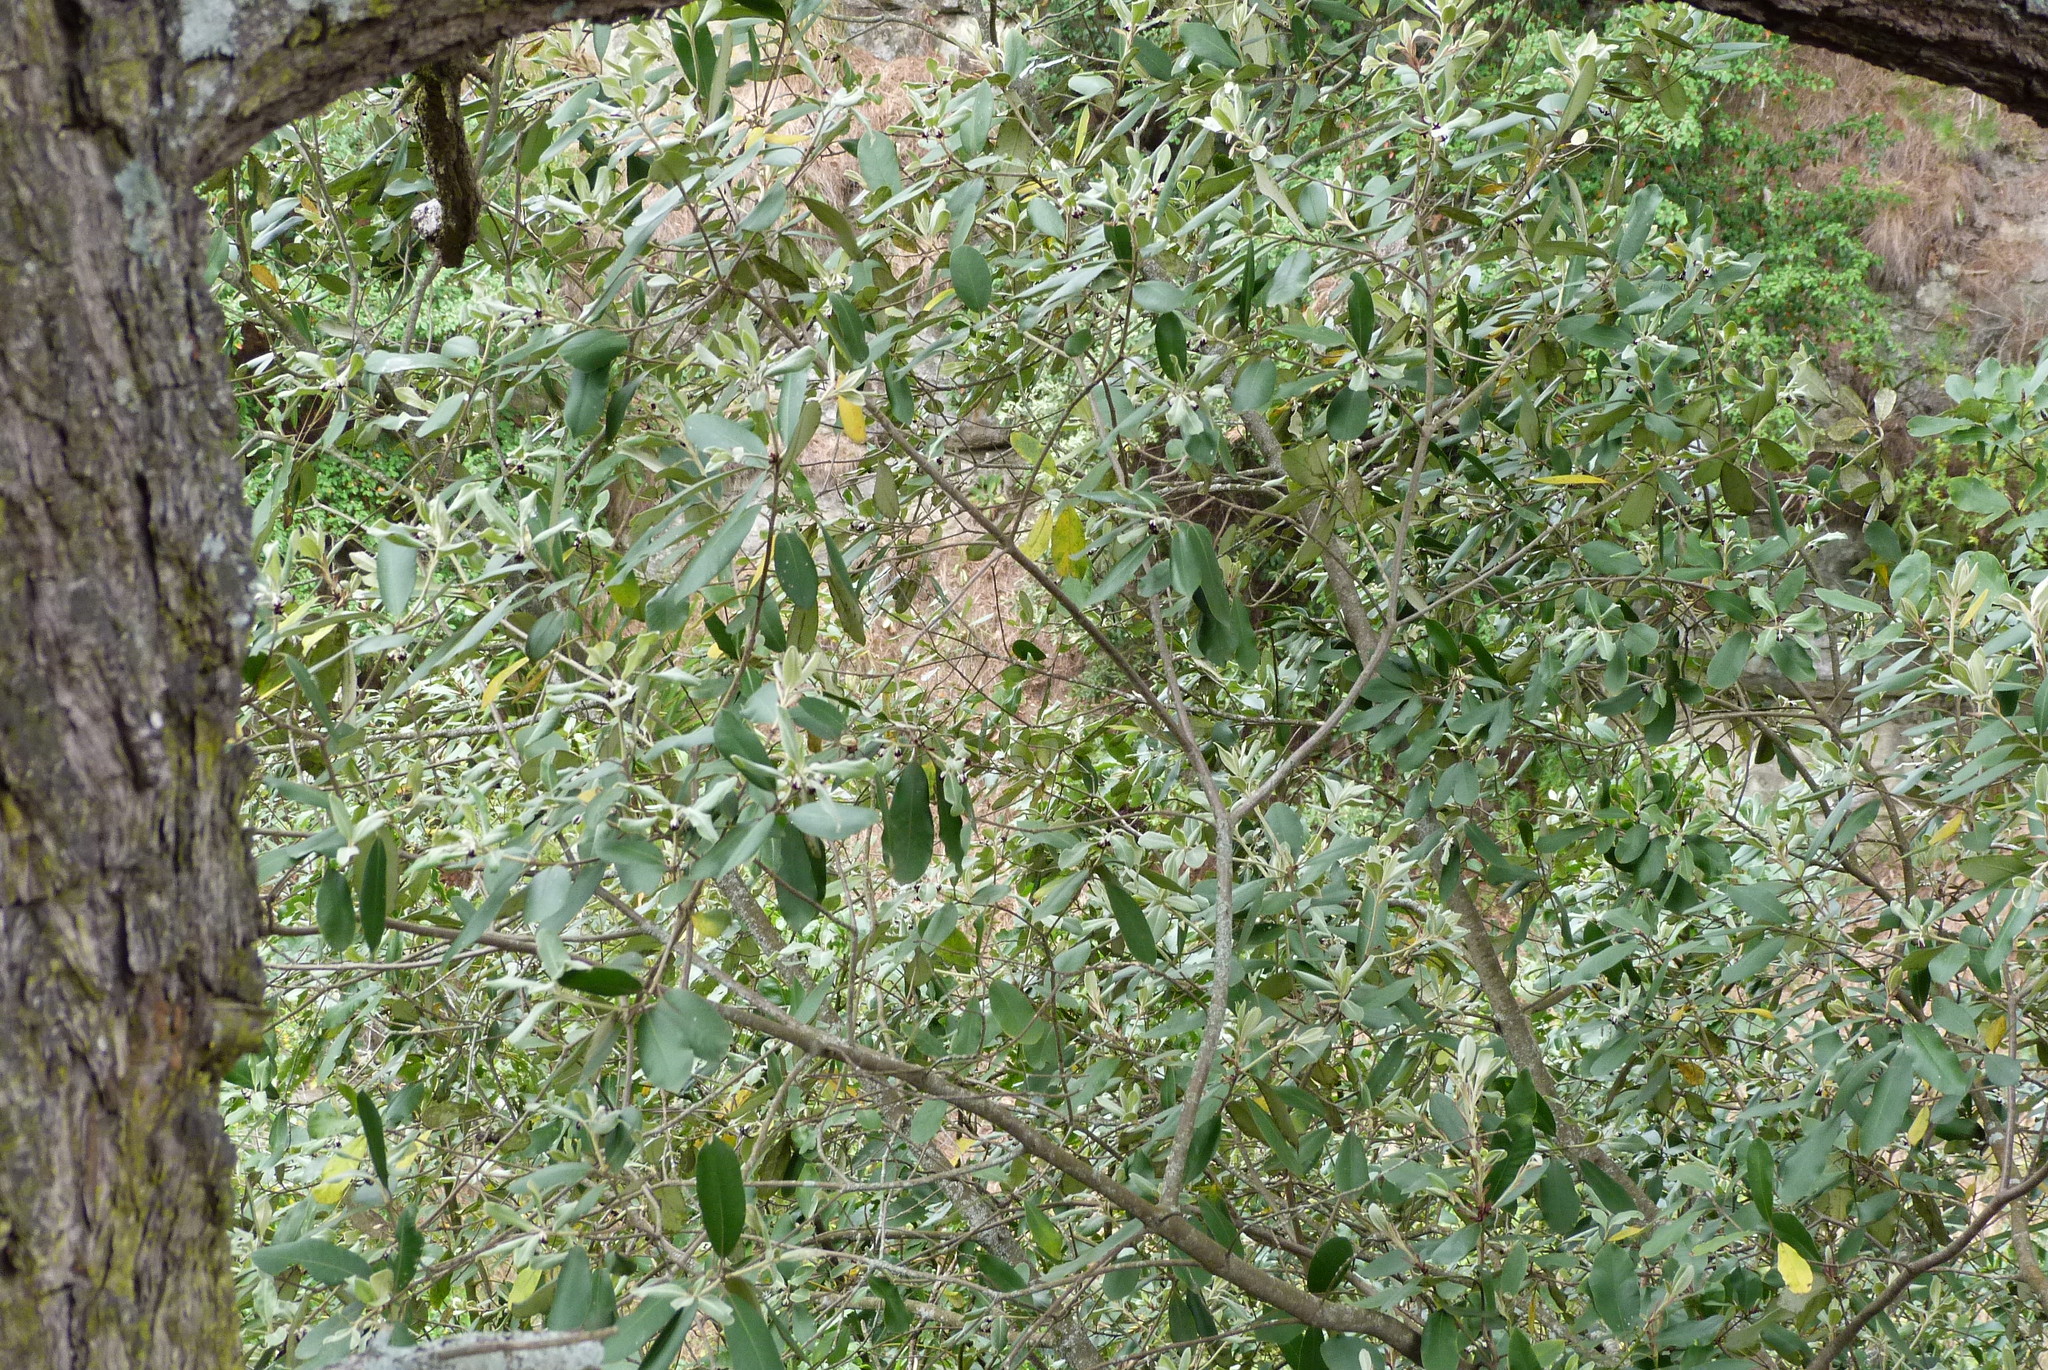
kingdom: Plantae
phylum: Tracheophyta
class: Magnoliopsida
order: Apiales
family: Pittosporaceae
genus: Pittosporum
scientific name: Pittosporum ralphii
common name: Ralph's desertwillow
